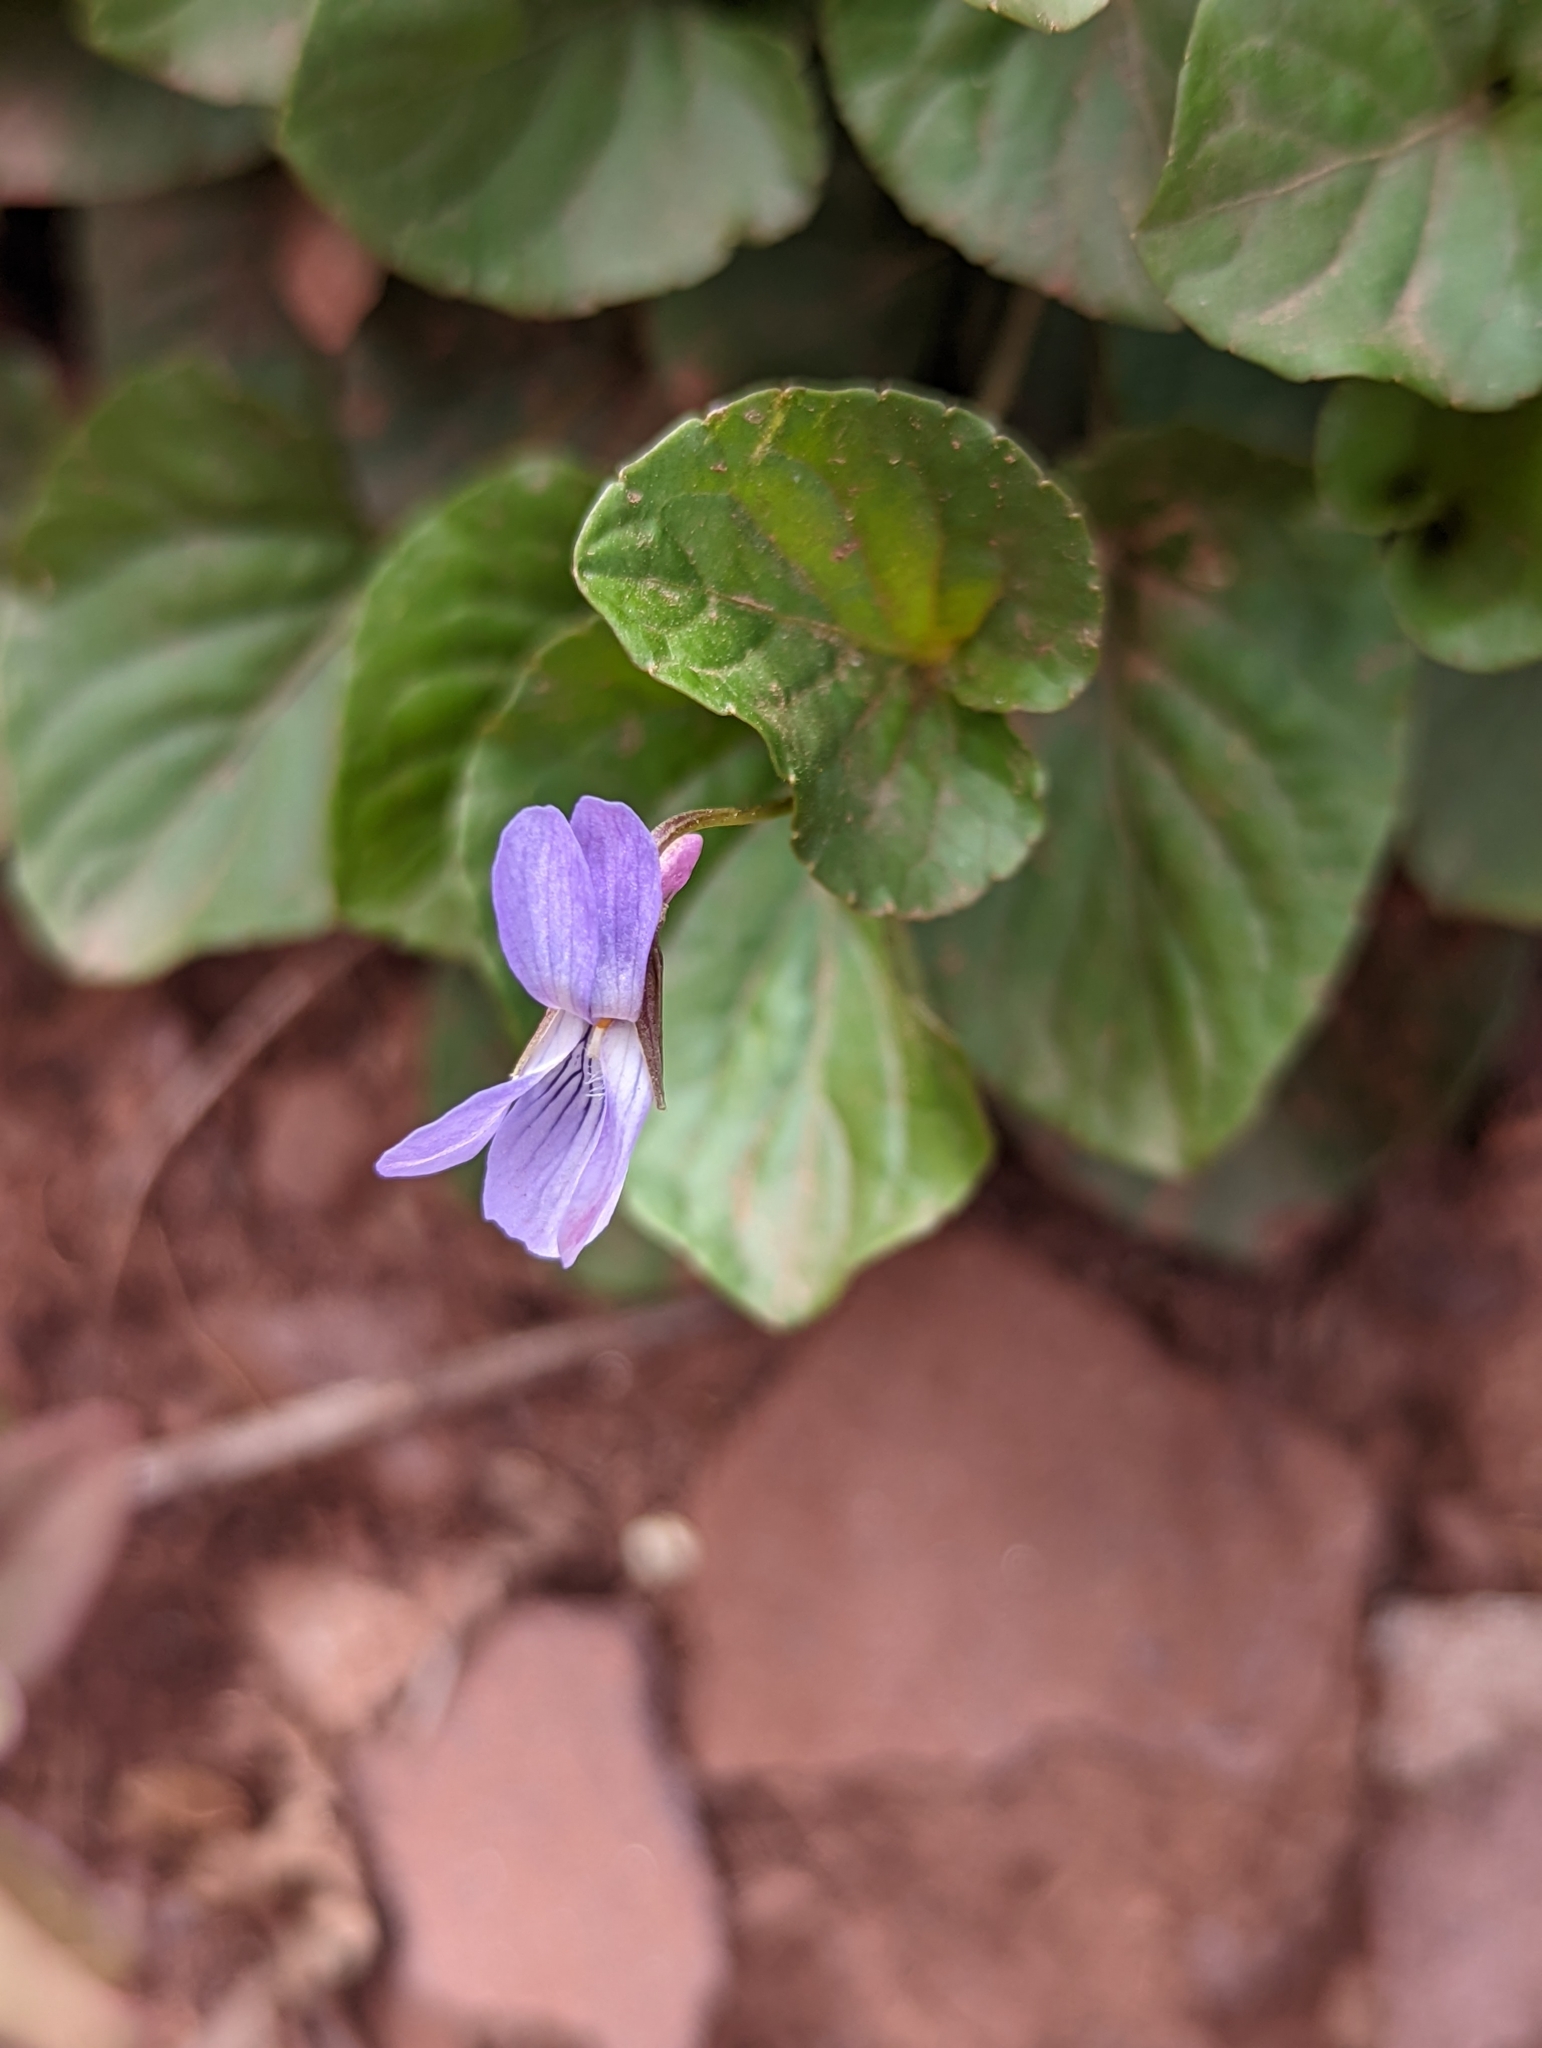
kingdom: Plantae
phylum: Tracheophyta
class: Magnoliopsida
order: Malpighiales
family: Violaceae
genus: Viola
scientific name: Viola adunca
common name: Sand violet
